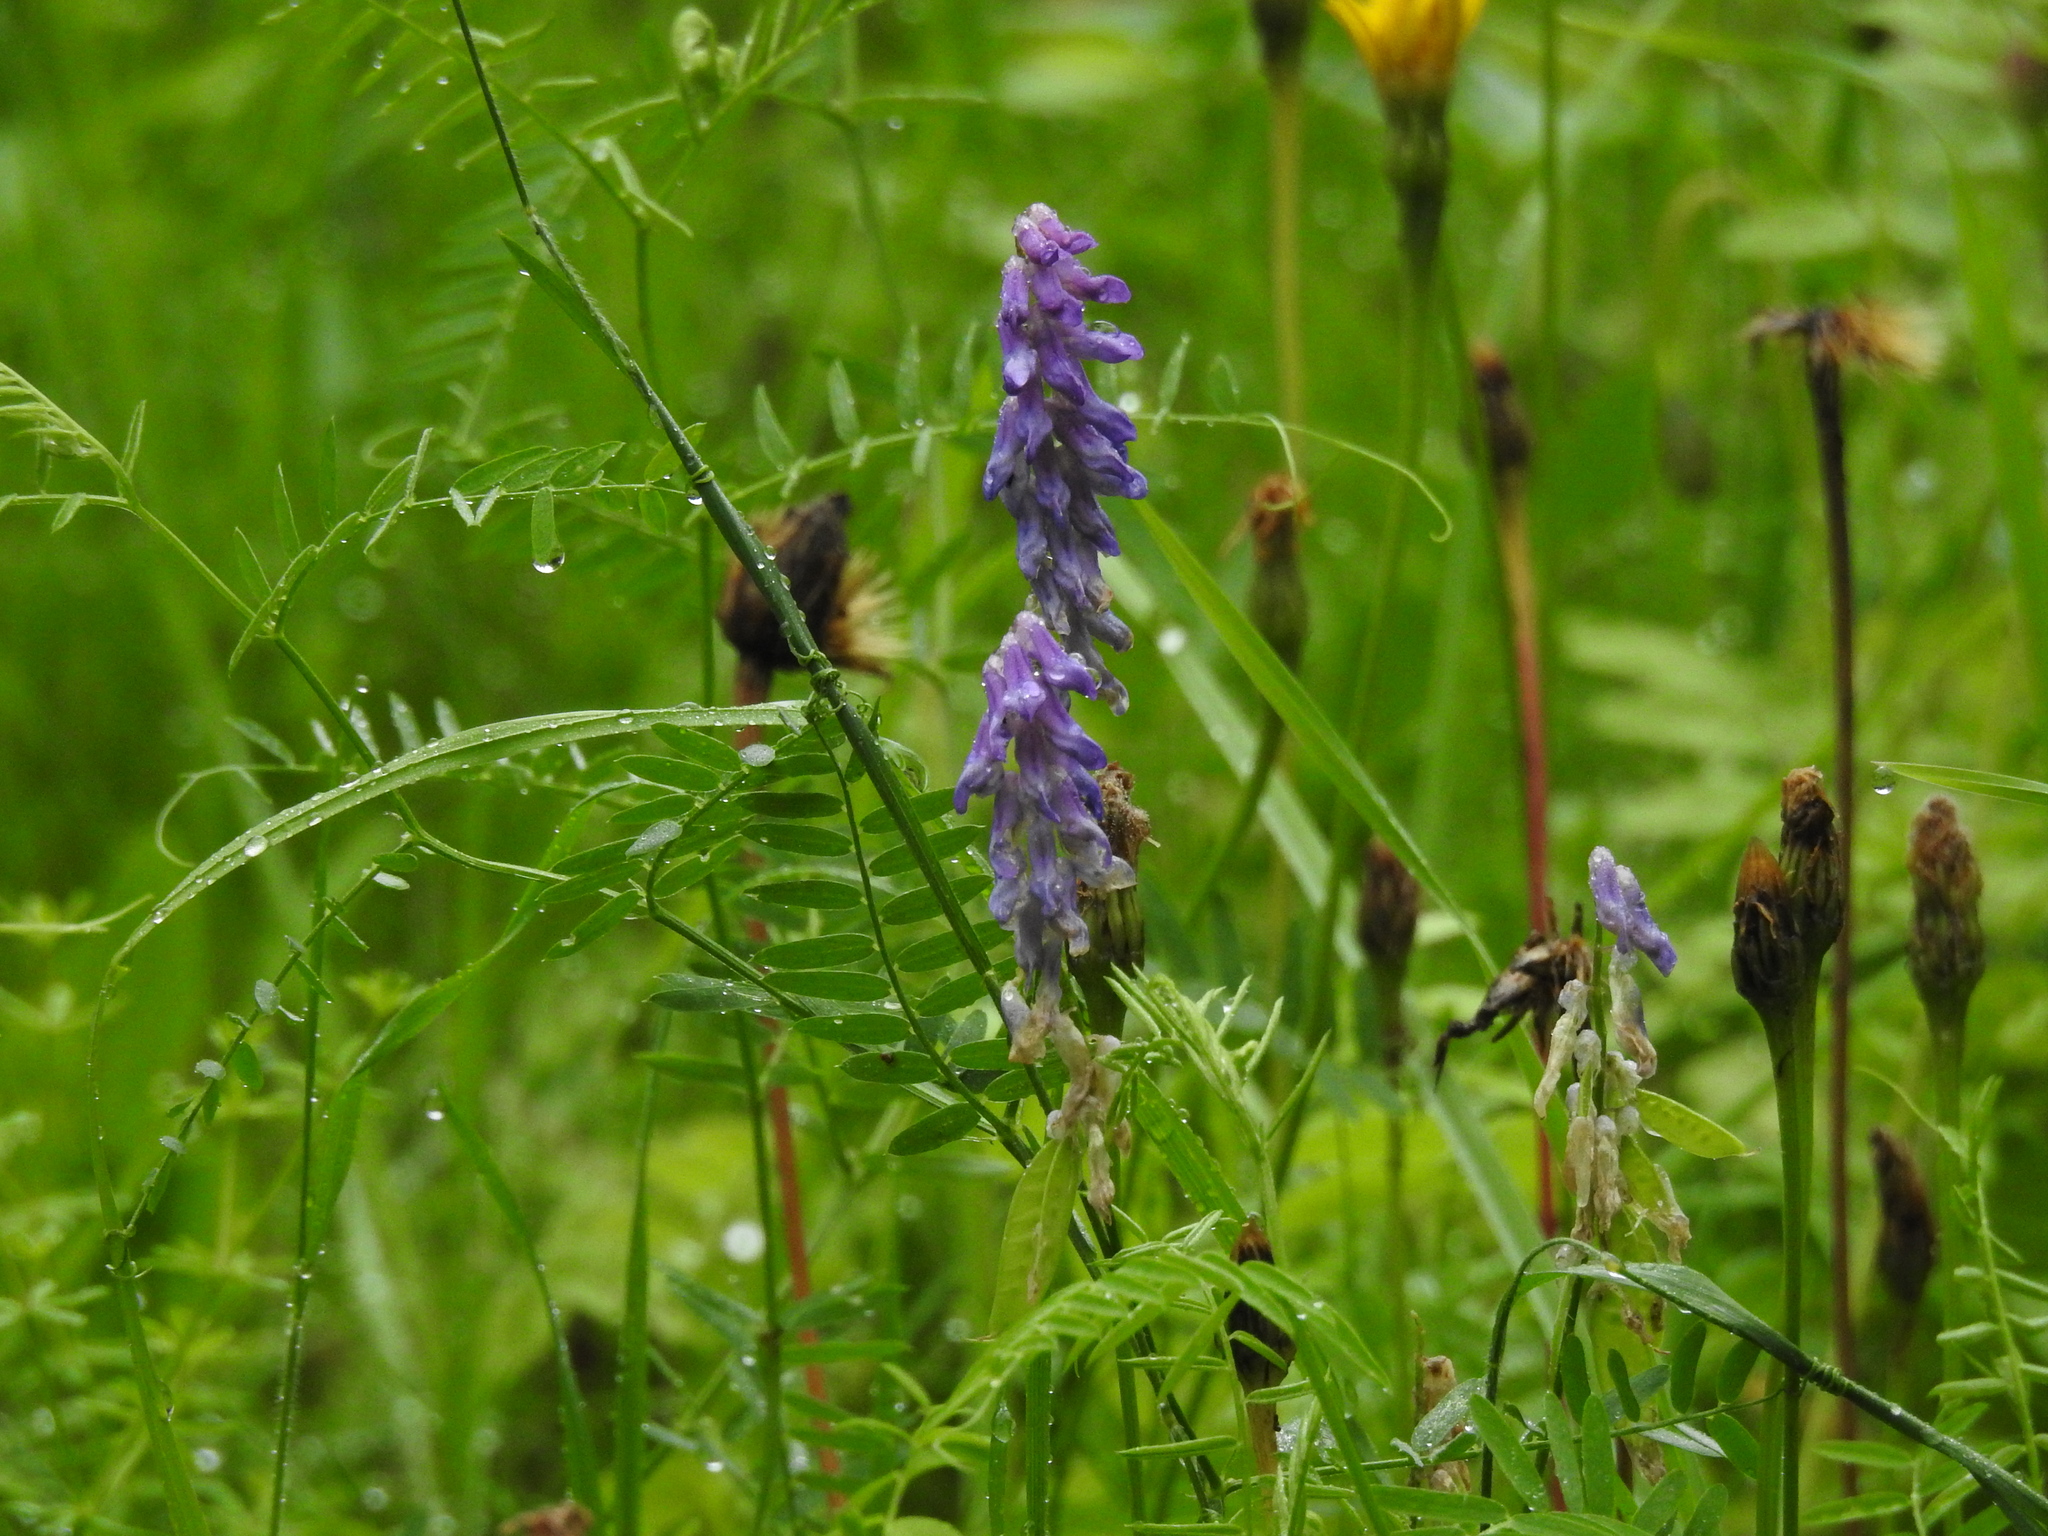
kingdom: Plantae
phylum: Tracheophyta
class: Magnoliopsida
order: Fabales
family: Fabaceae
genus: Vicia
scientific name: Vicia cracca
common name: Bird vetch
